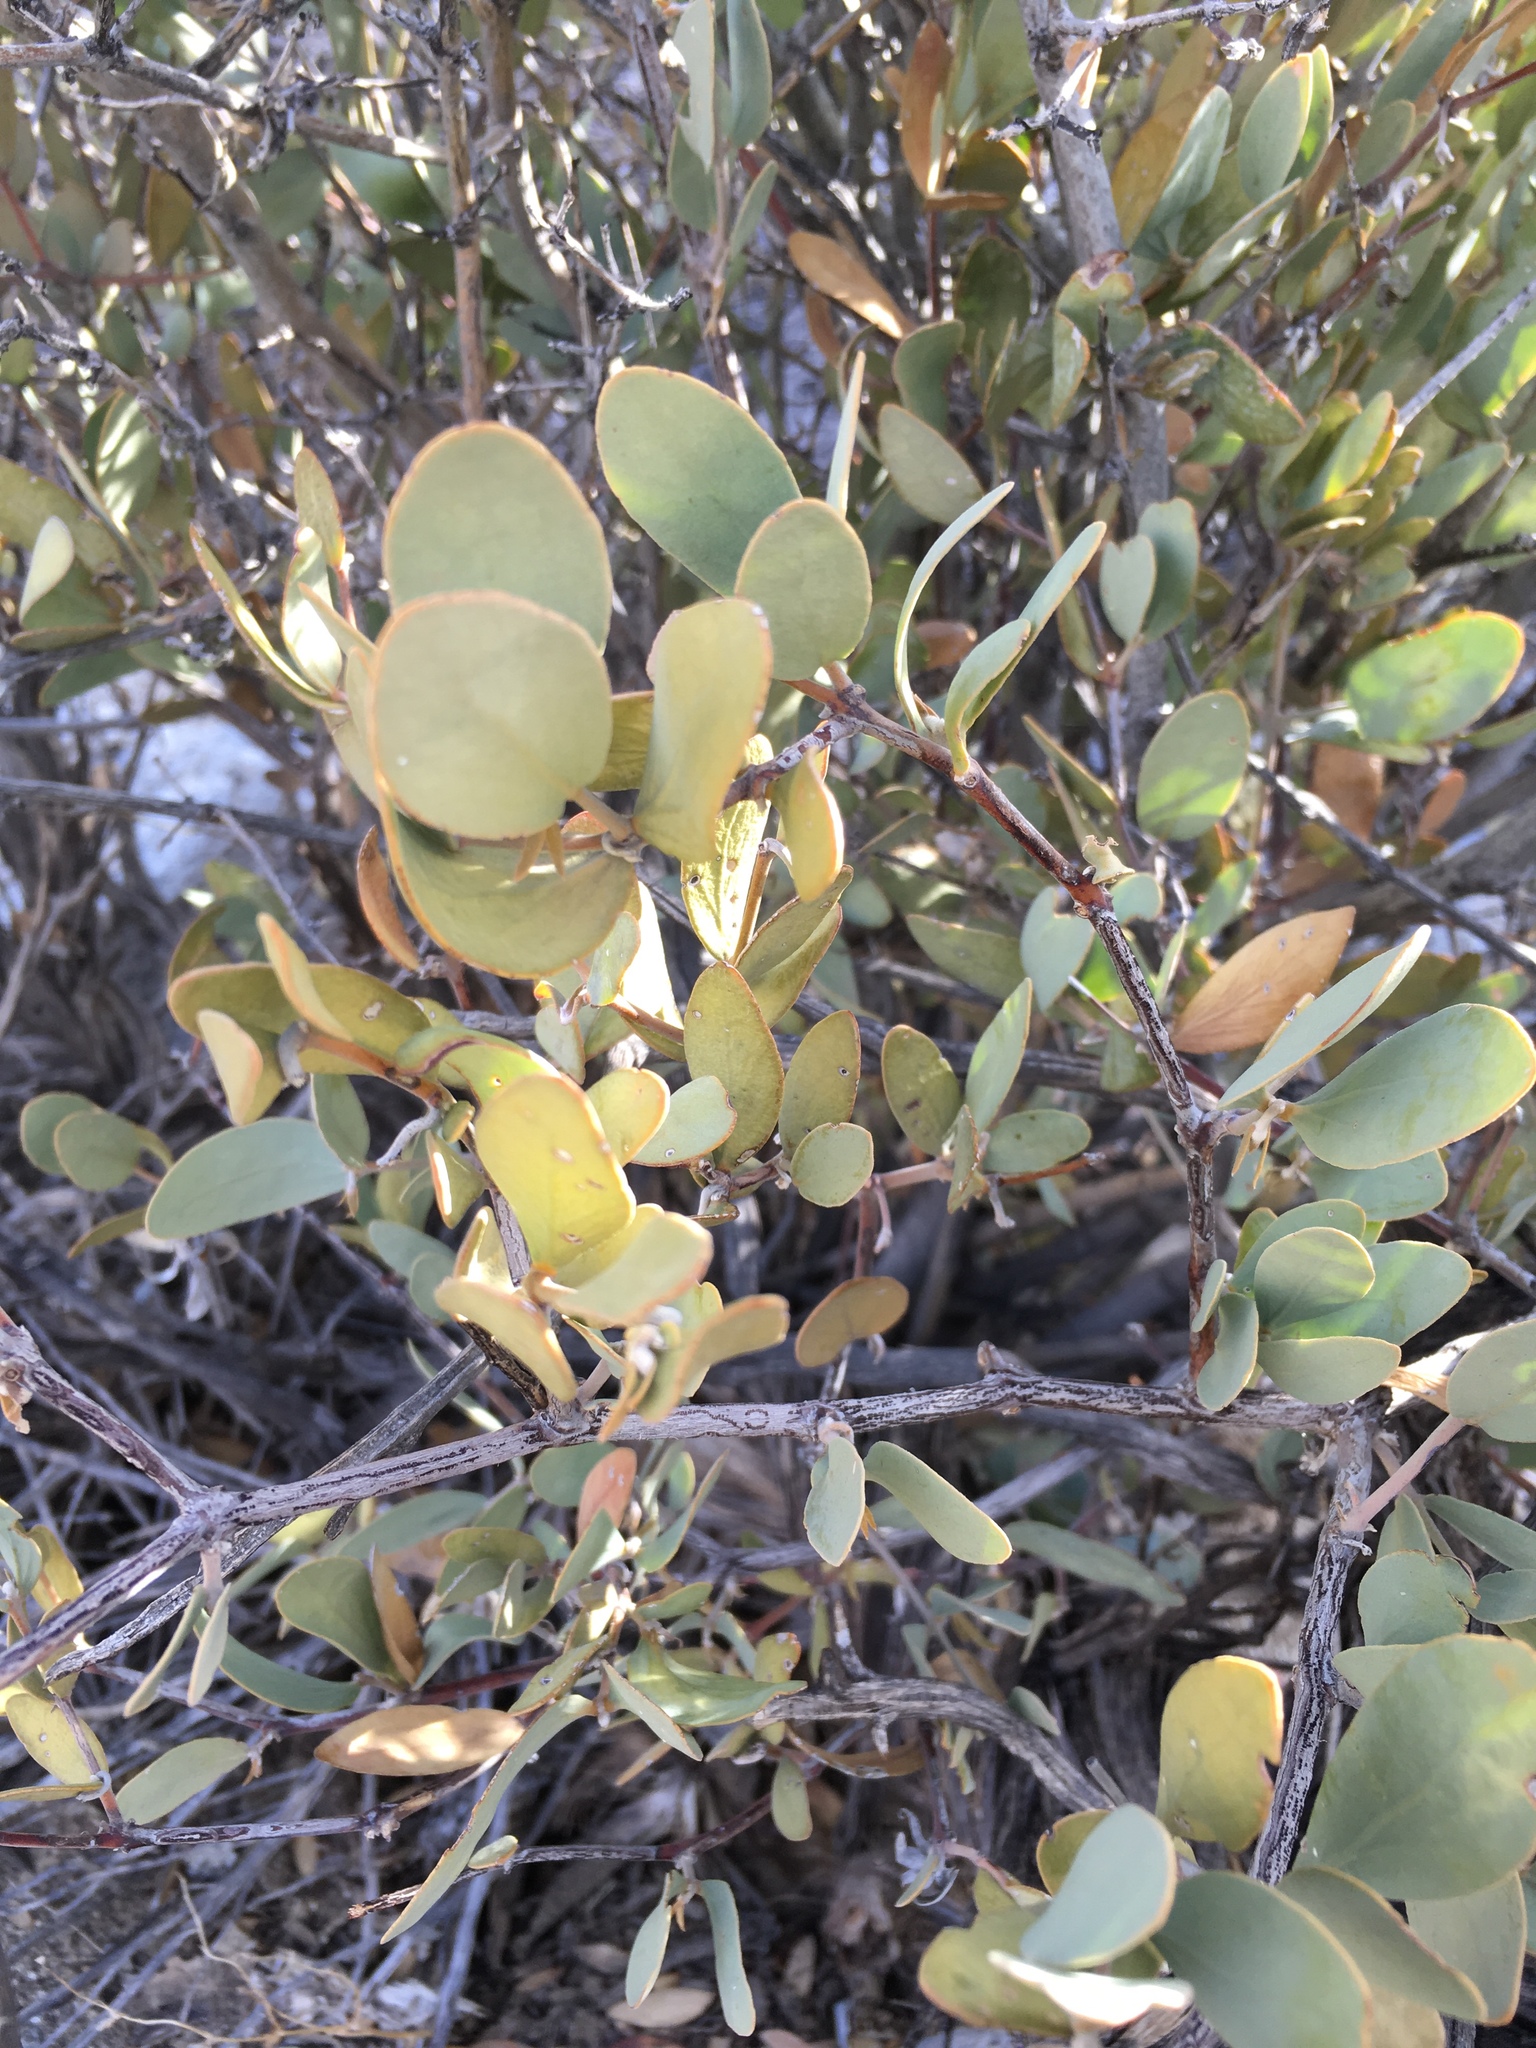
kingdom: Plantae
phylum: Tracheophyta
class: Magnoliopsida
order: Caryophyllales
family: Simmondsiaceae
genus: Simmondsia
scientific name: Simmondsia chinensis
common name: Jojoba
